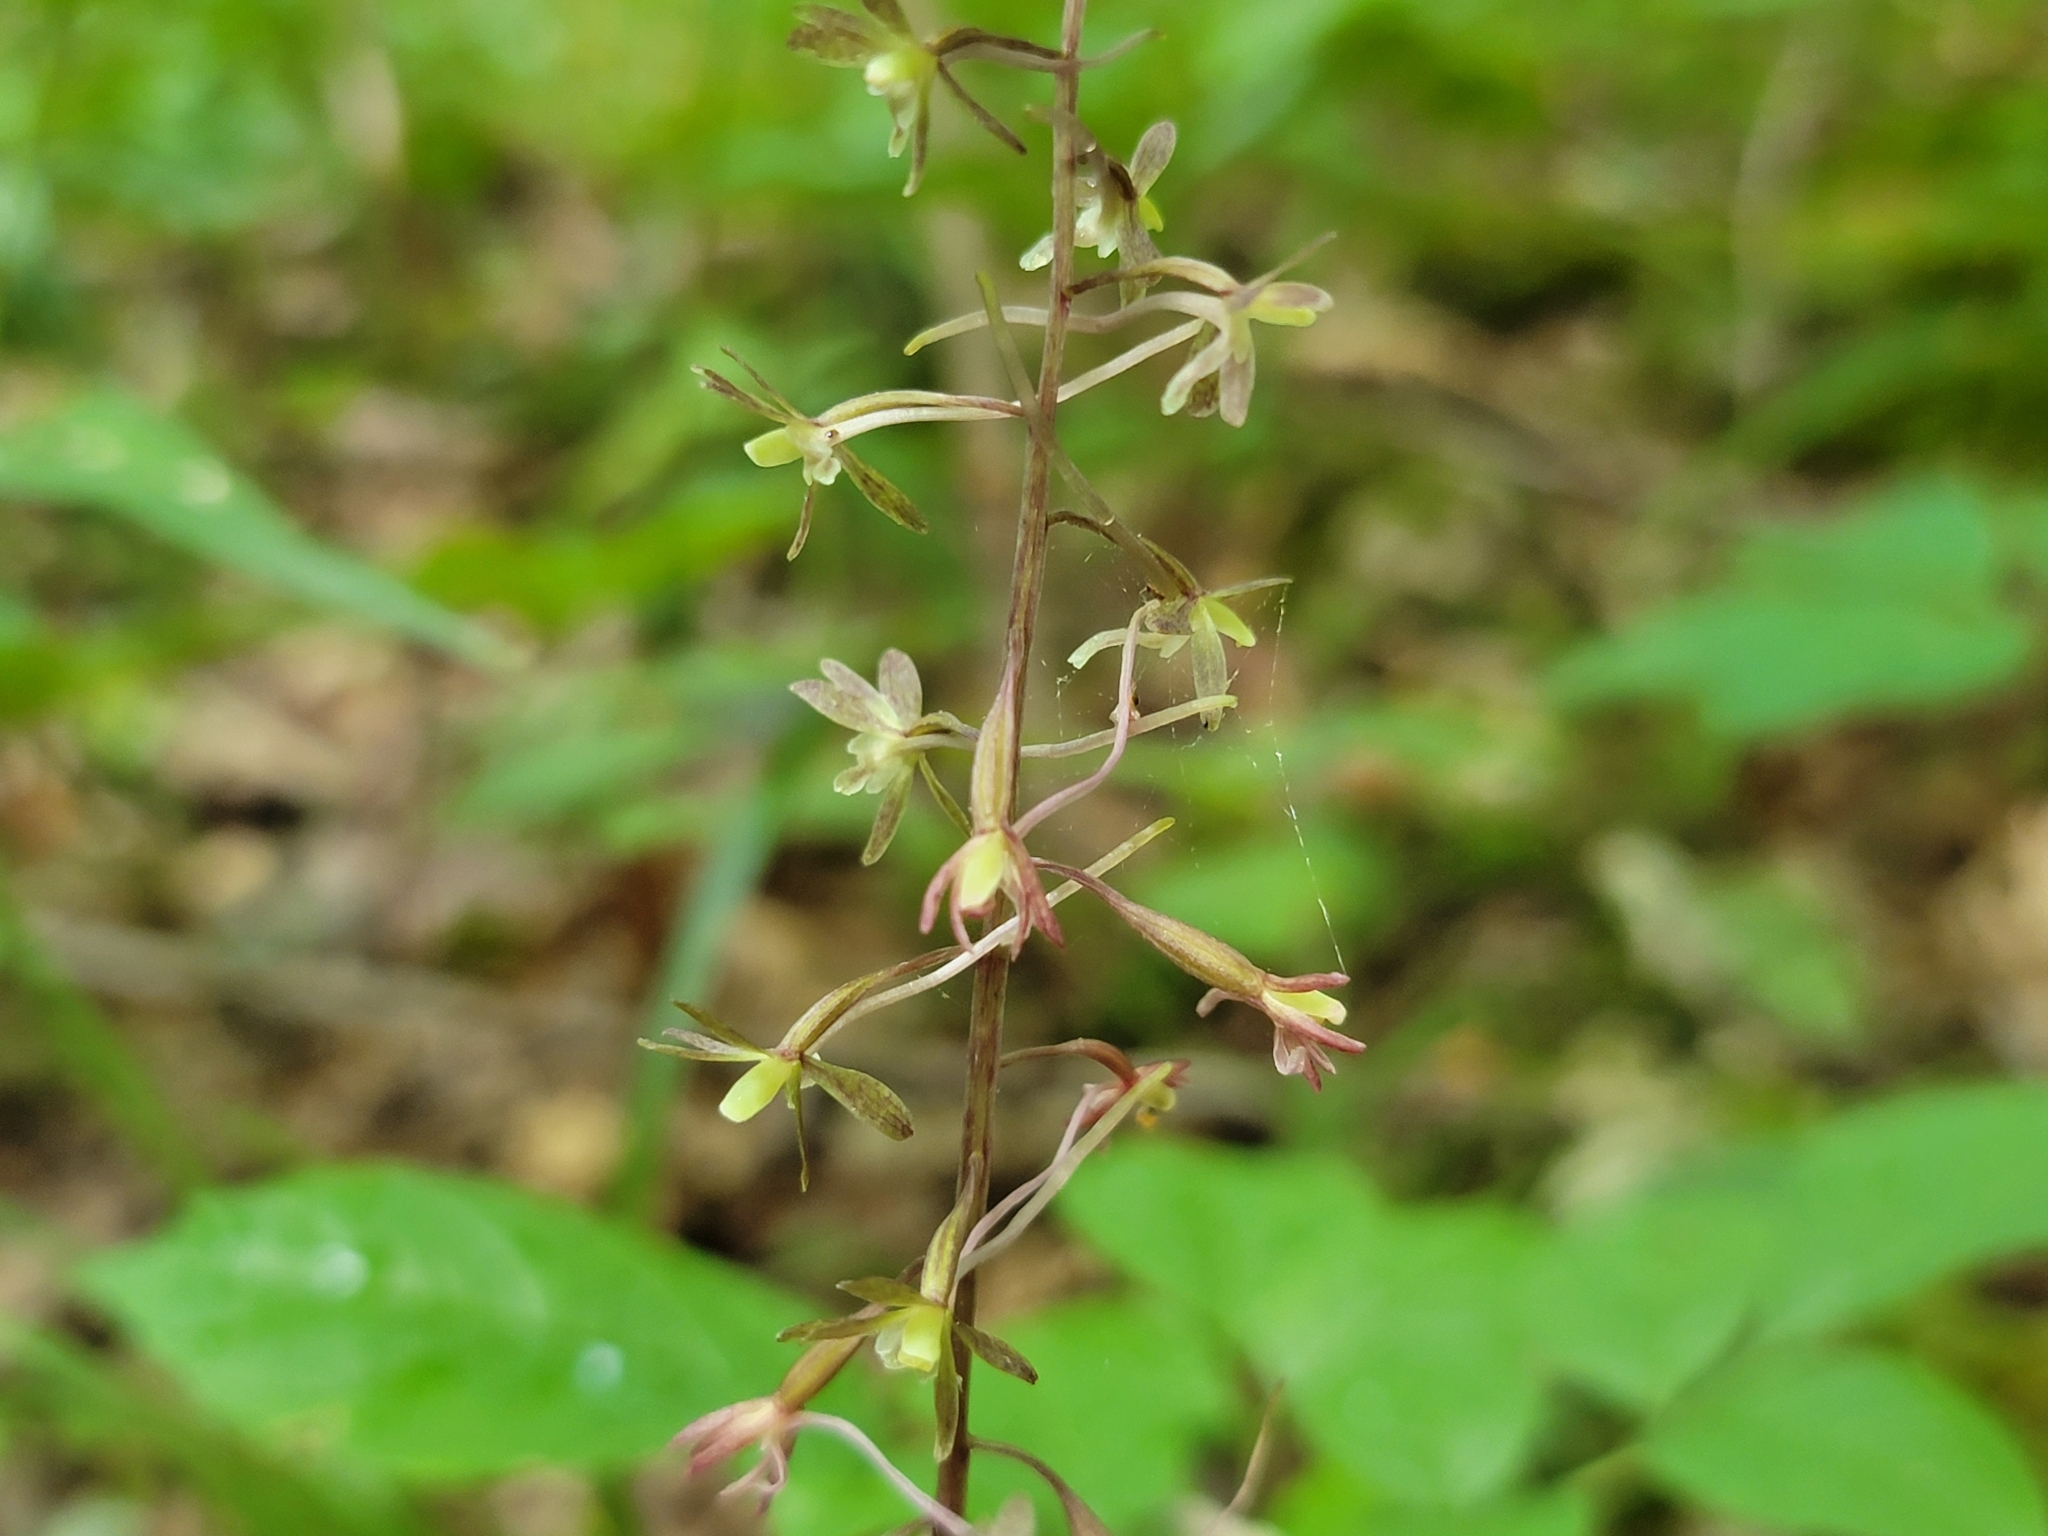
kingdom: Plantae
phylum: Tracheophyta
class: Liliopsida
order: Asparagales
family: Orchidaceae
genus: Tipularia
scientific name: Tipularia discolor
